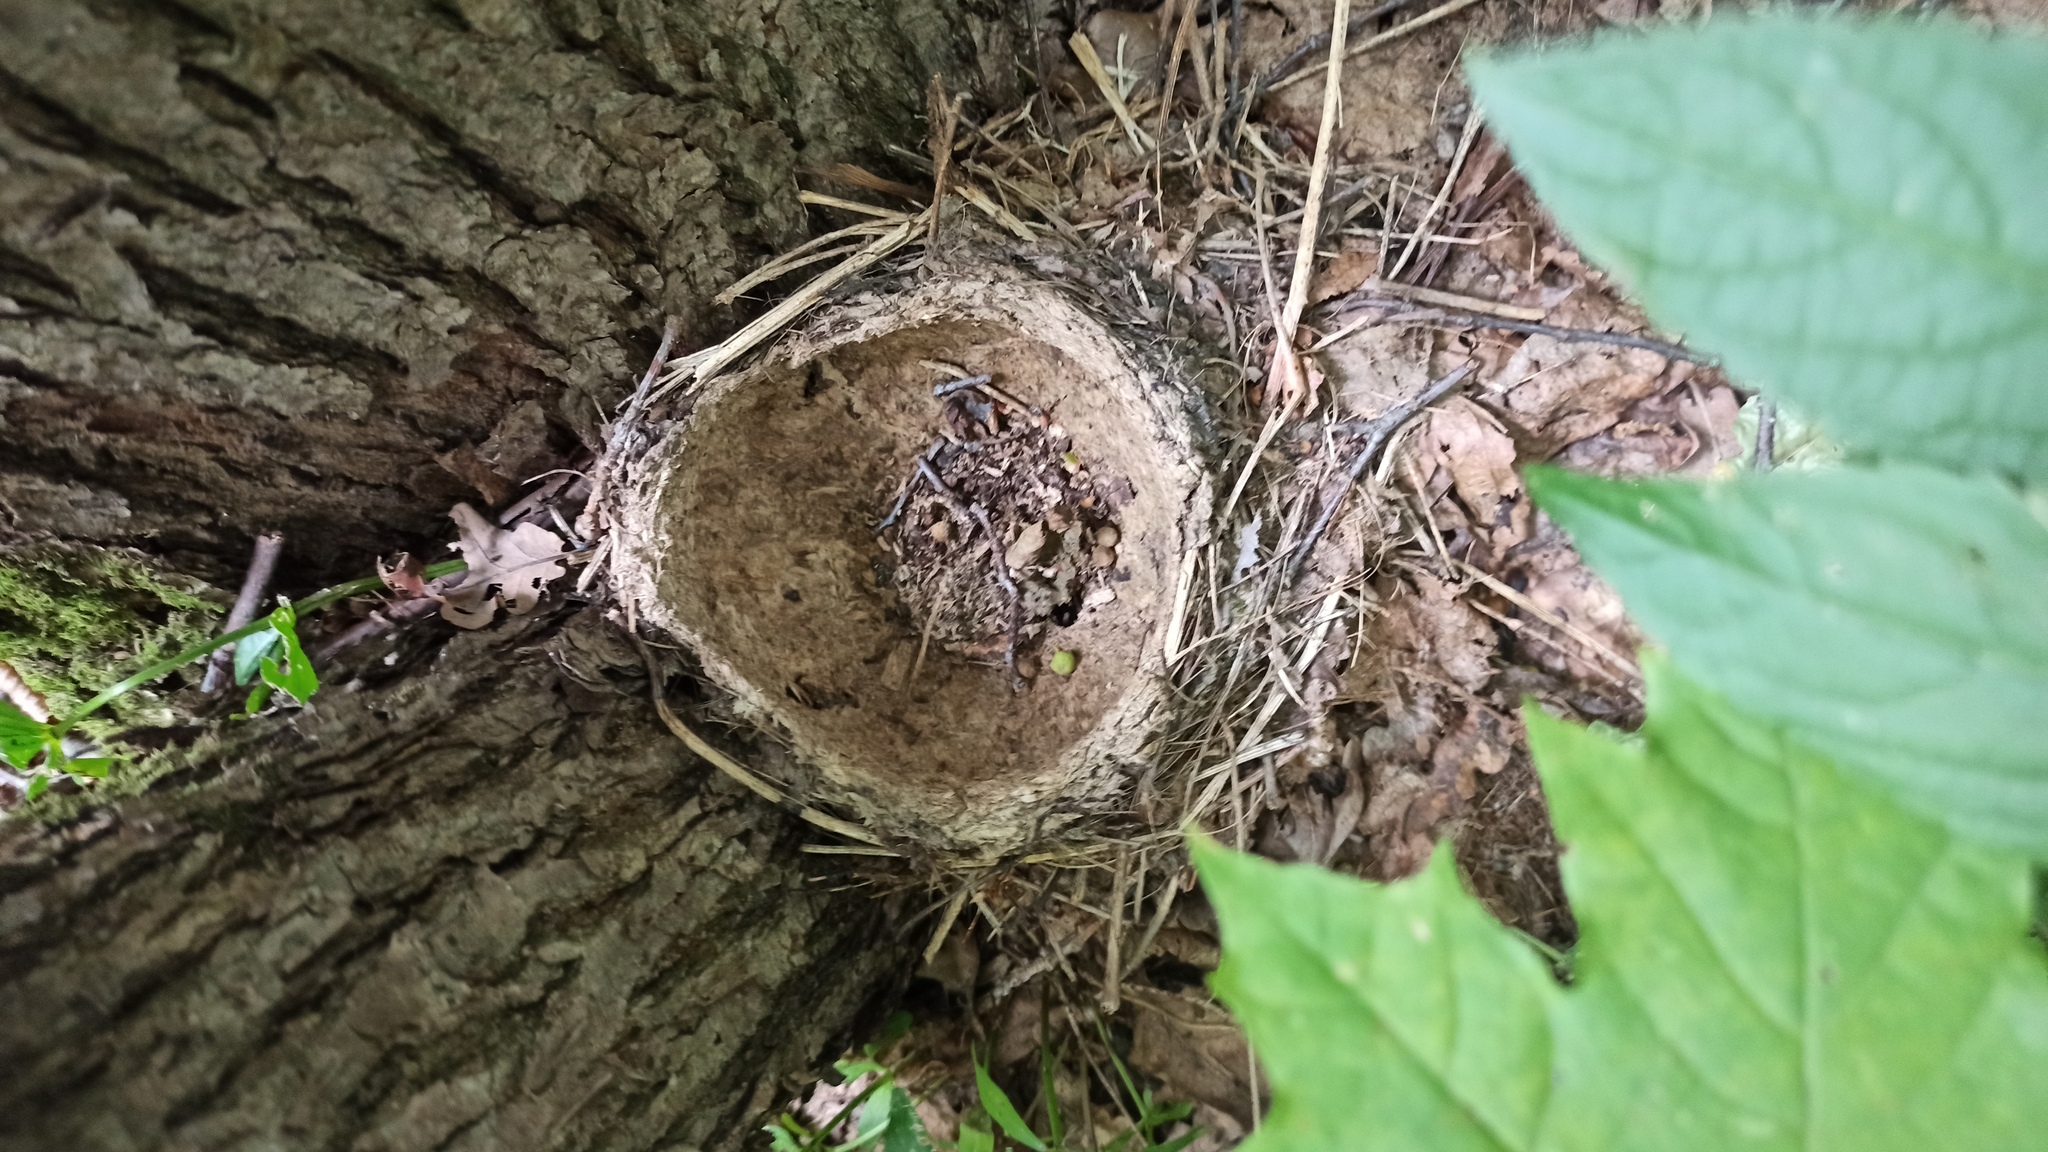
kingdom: Animalia
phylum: Chordata
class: Aves
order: Passeriformes
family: Turdidae
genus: Turdus
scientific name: Turdus philomelos
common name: Song thrush
